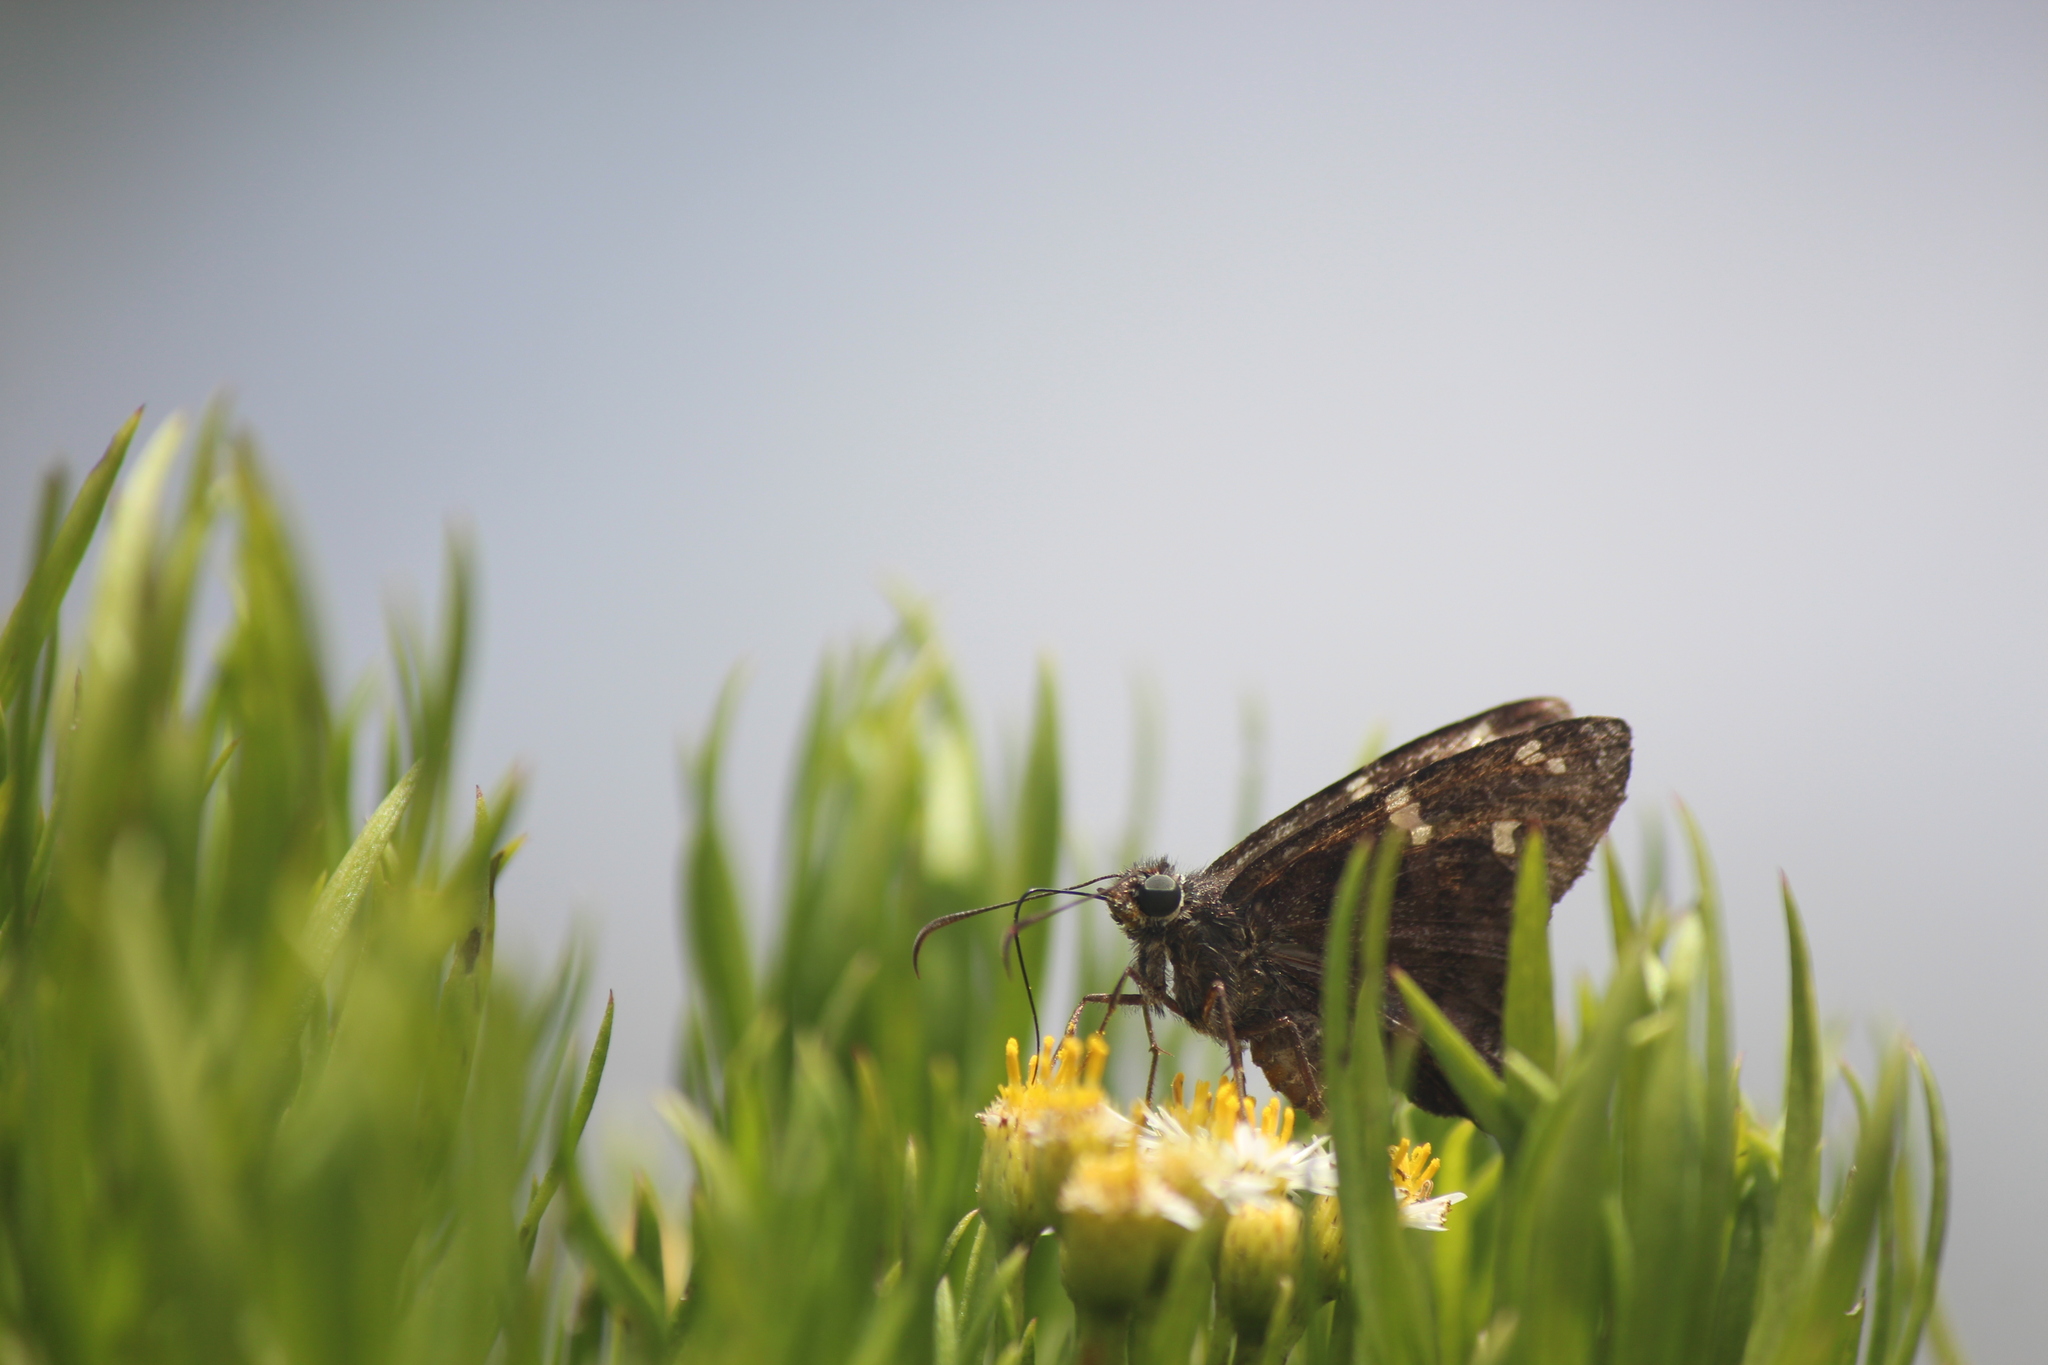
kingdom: Animalia
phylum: Arthropoda
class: Insecta
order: Lepidoptera
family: Hesperiidae
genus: Thorybes
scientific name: Thorybes
